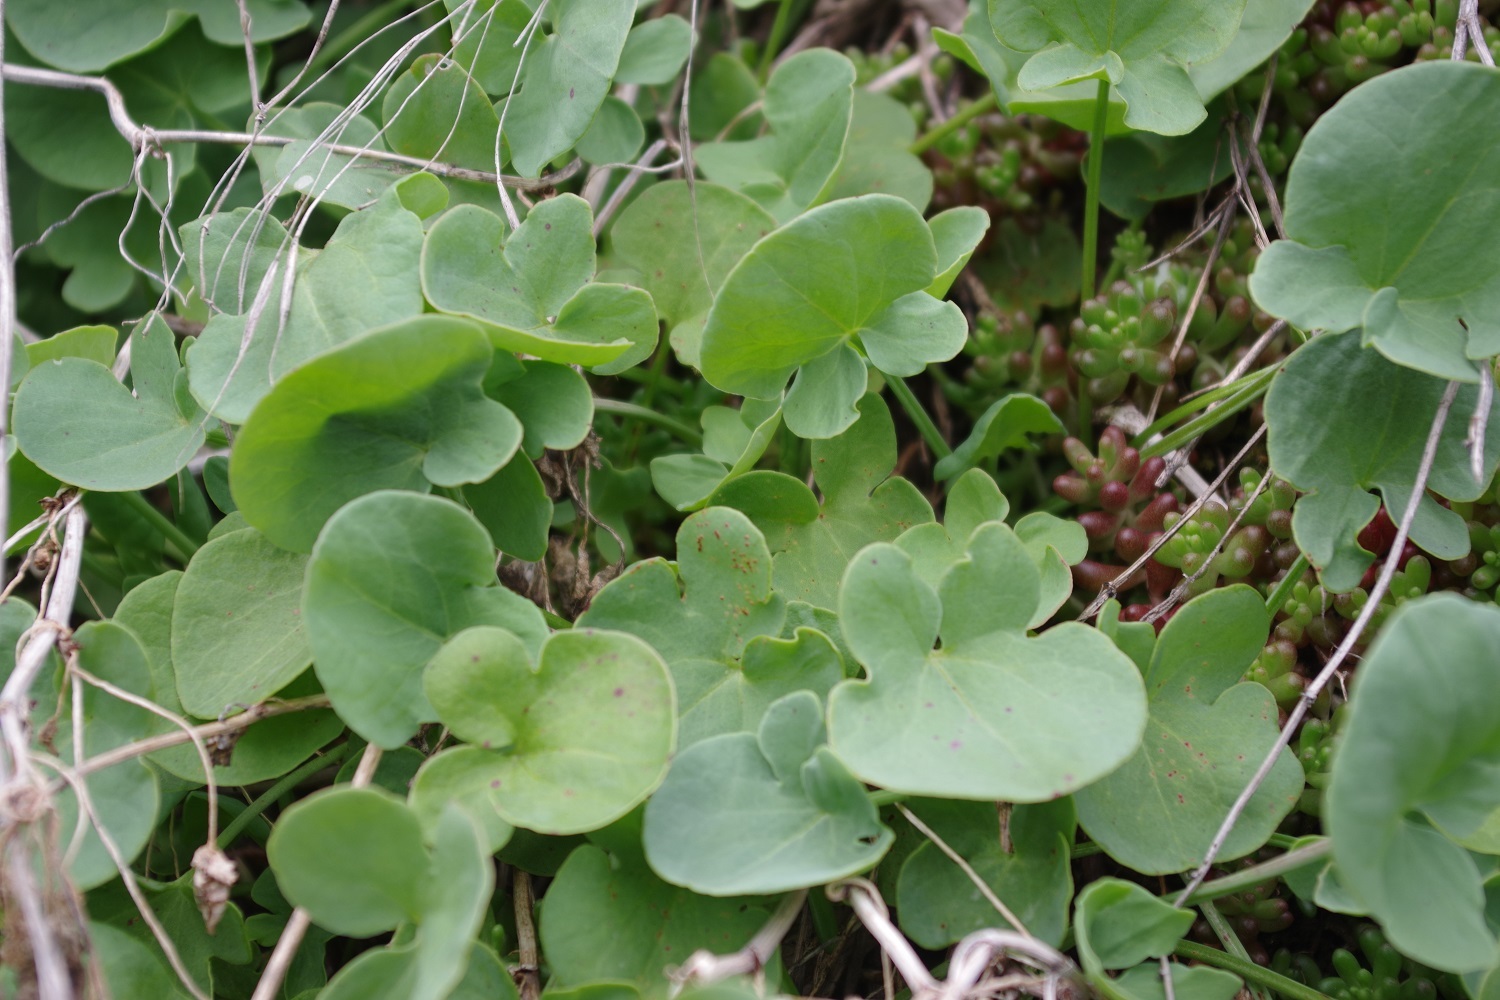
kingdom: Plantae
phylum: Tracheophyta
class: Magnoliopsida
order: Caryophyllales
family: Polygonaceae
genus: Rumex
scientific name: Rumex scutatus
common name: French sorrel
